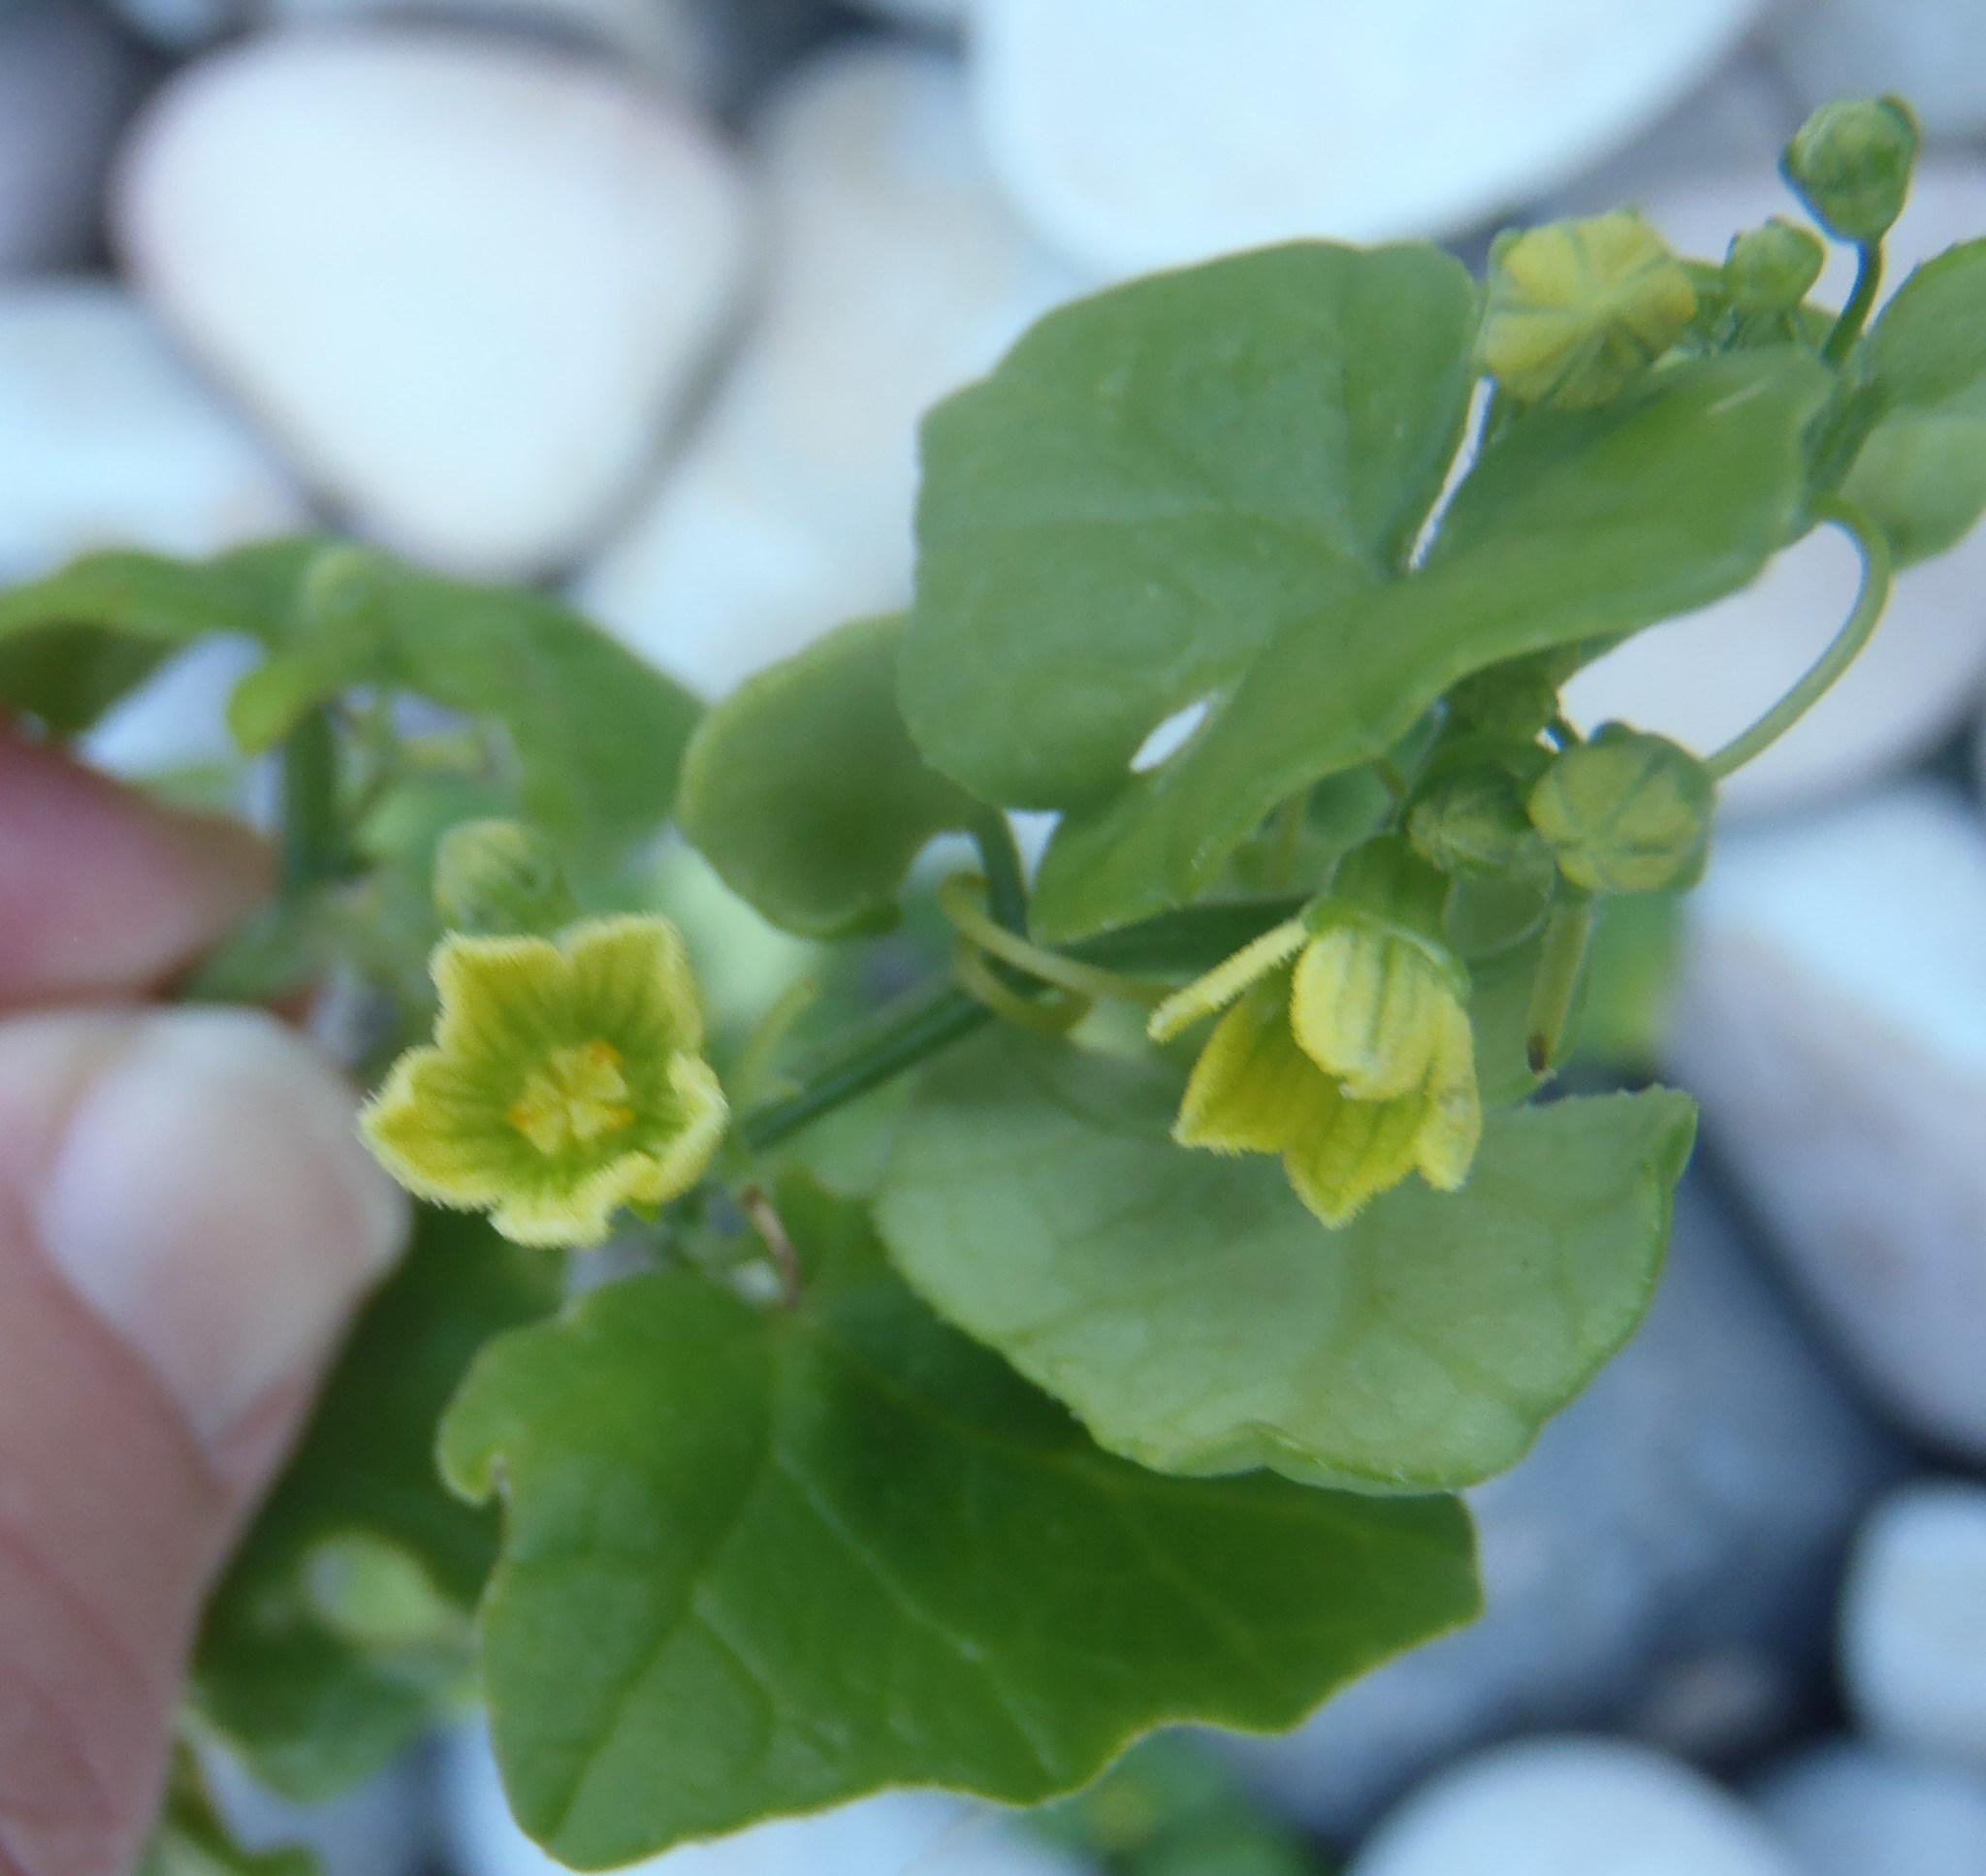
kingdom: Plantae
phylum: Tracheophyta
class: Magnoliopsida
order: Cucurbitales
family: Cucurbitaceae
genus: Kedrostis
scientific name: Kedrostis nana
